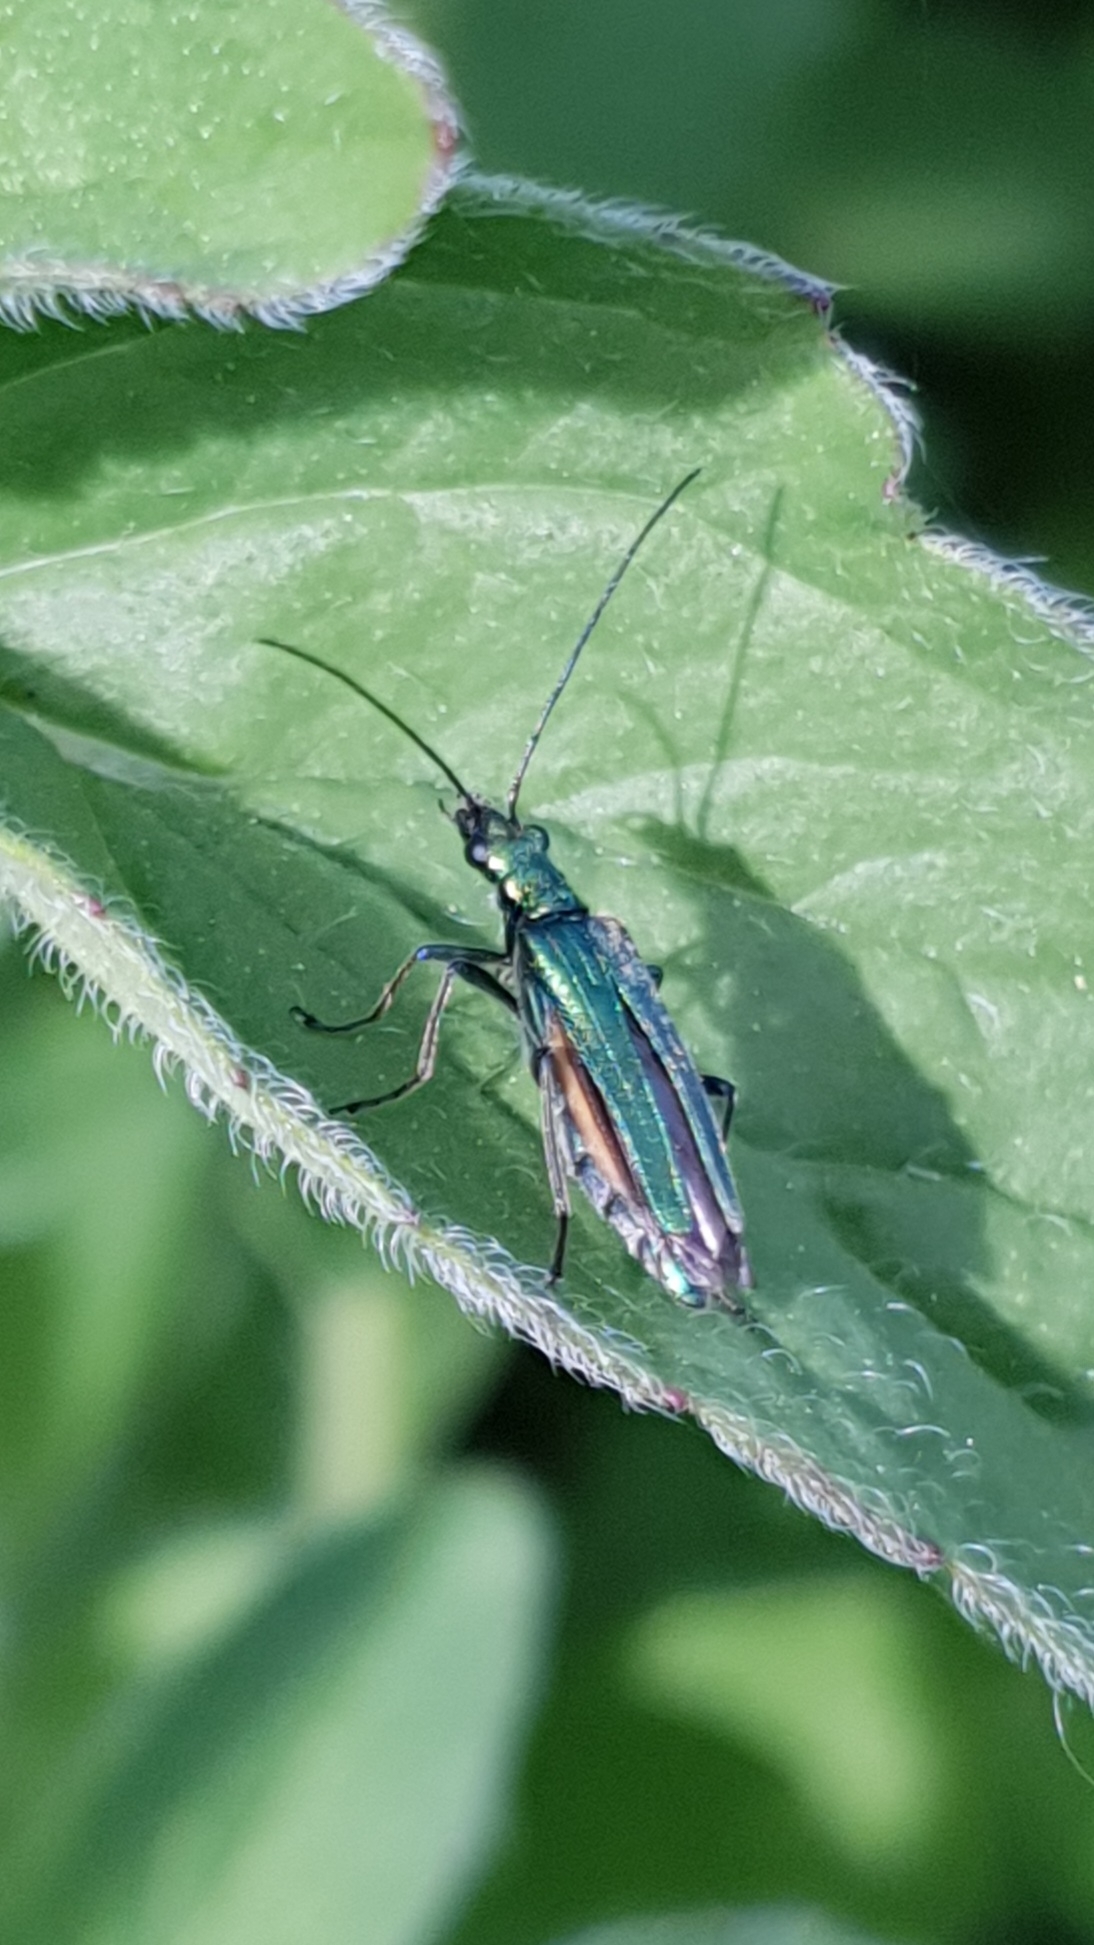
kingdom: Animalia
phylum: Arthropoda
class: Insecta
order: Coleoptera
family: Oedemeridae
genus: Oedemera
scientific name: Oedemera nobilis
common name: Swollen-thighed beetle
